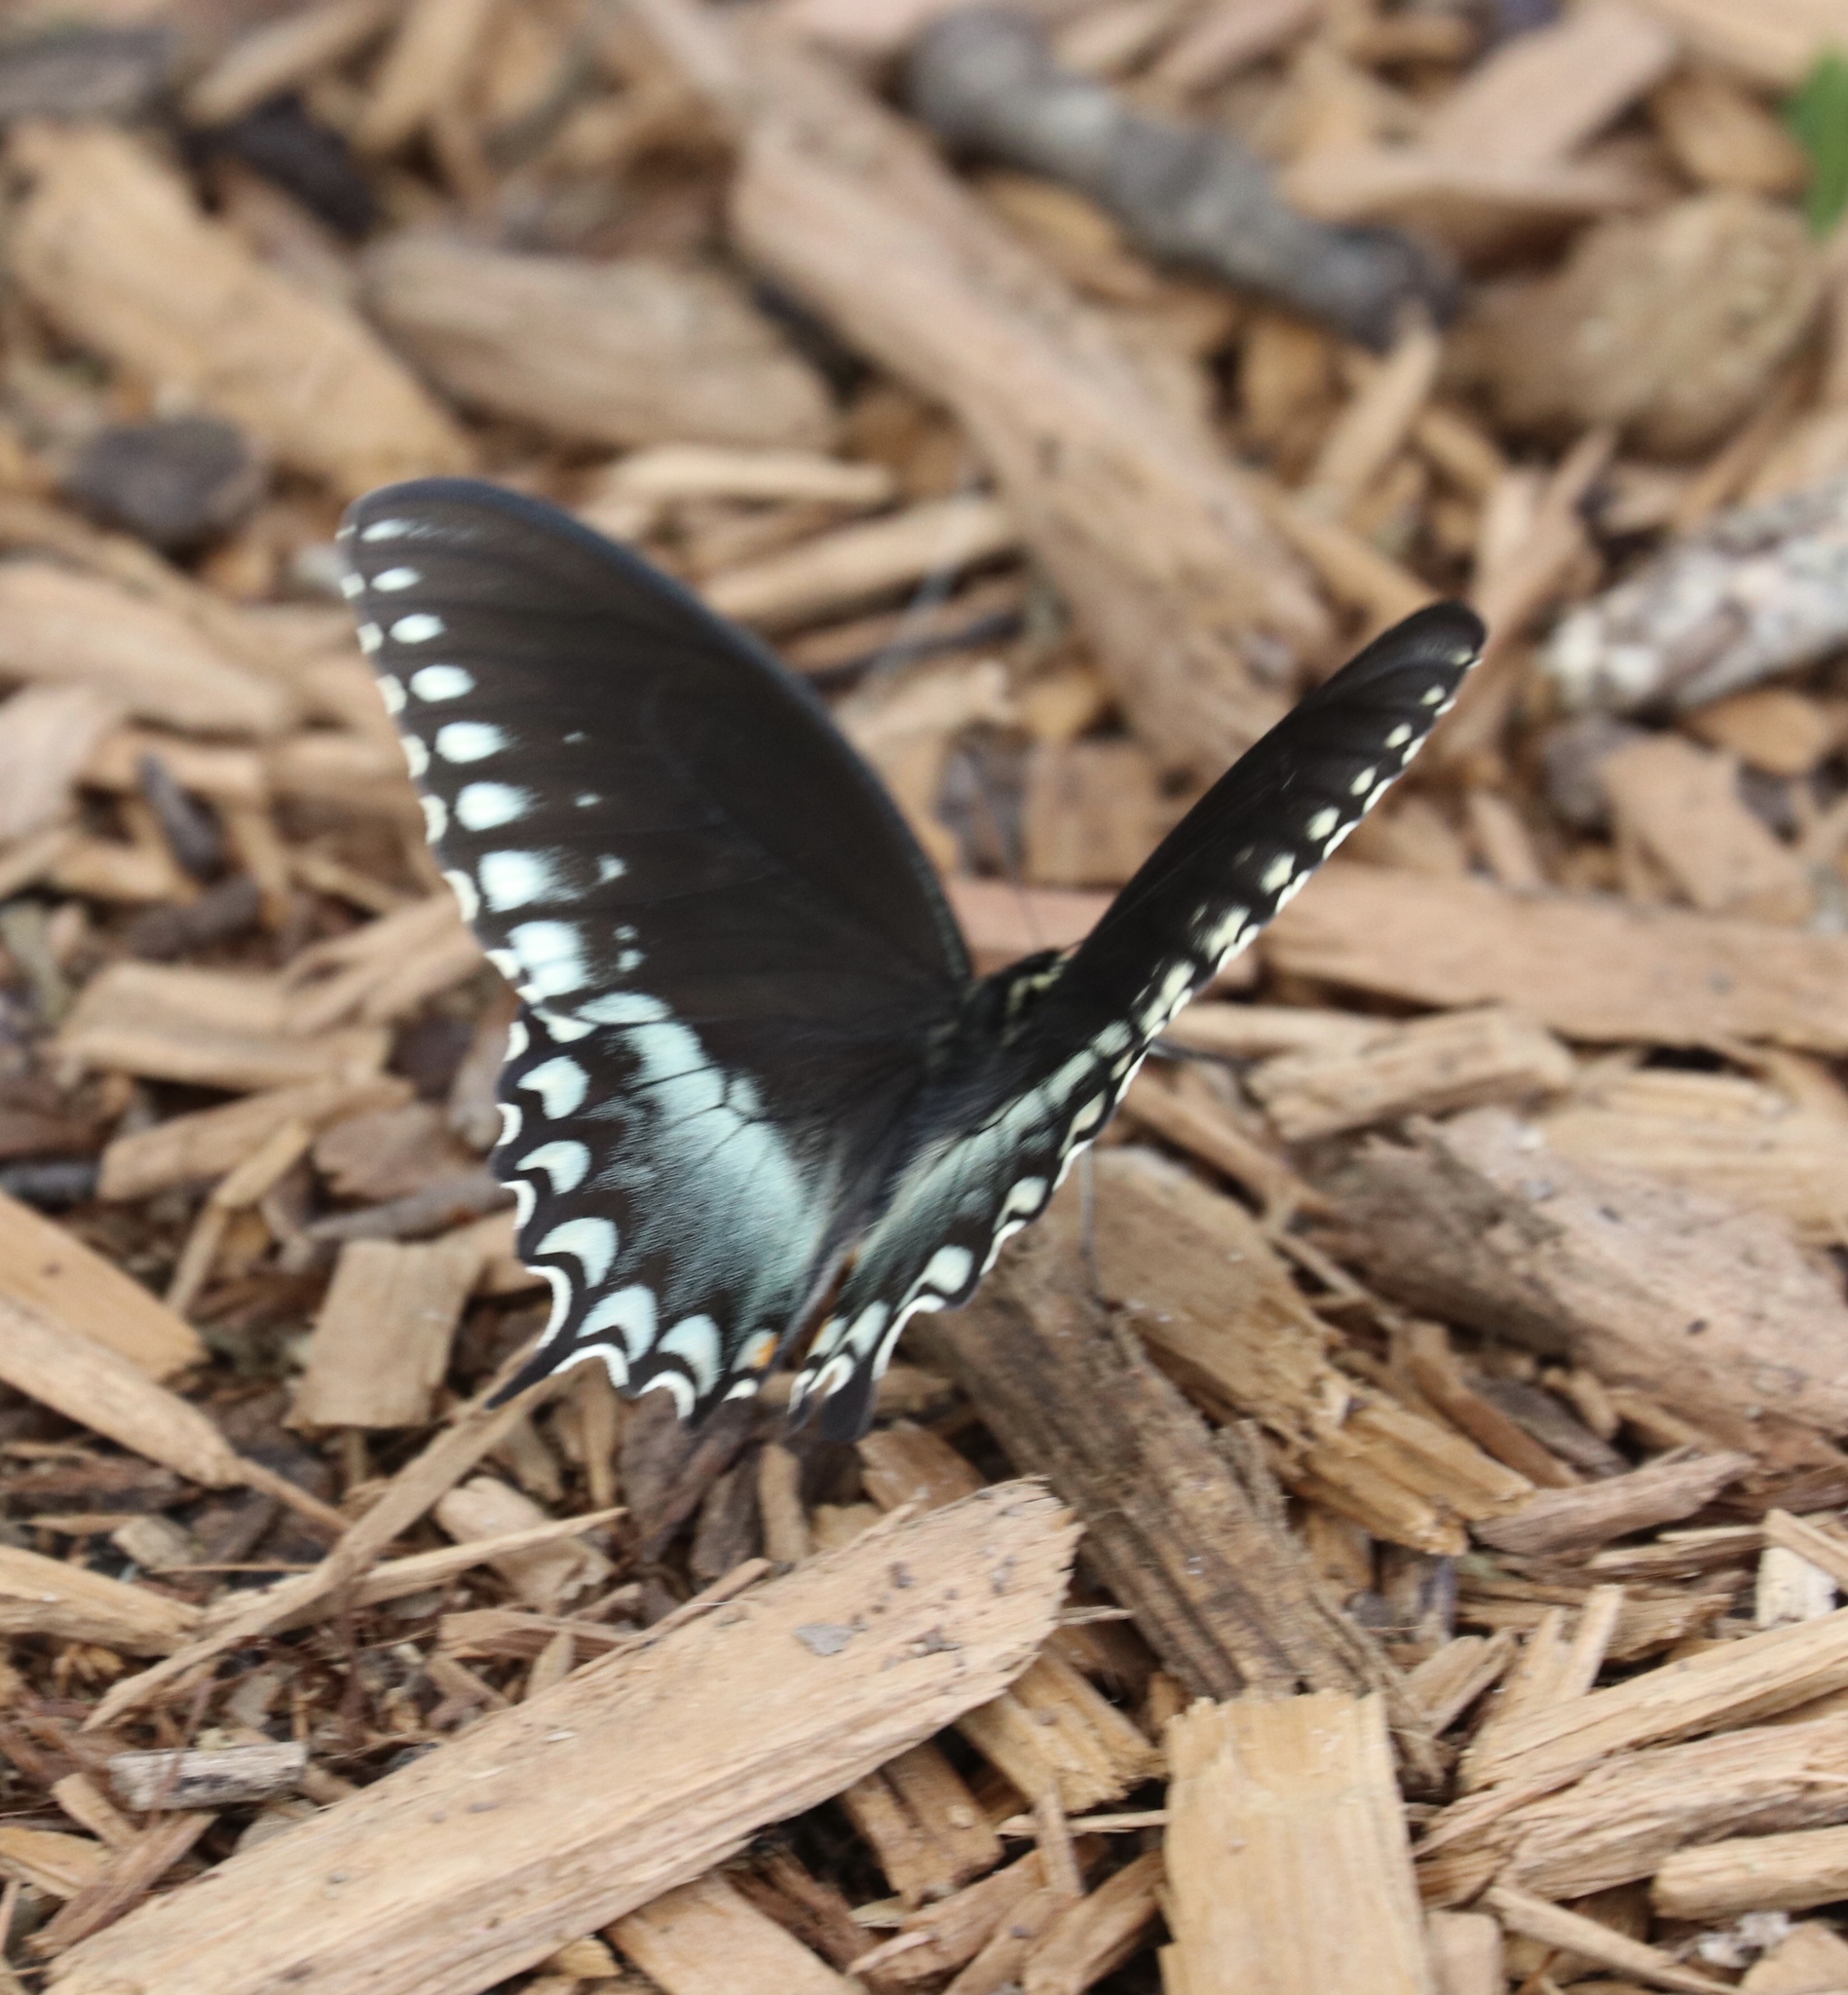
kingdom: Animalia
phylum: Arthropoda
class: Insecta
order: Lepidoptera
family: Papilionidae
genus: Papilio
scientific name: Papilio troilus
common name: Spicebush swallowtail
